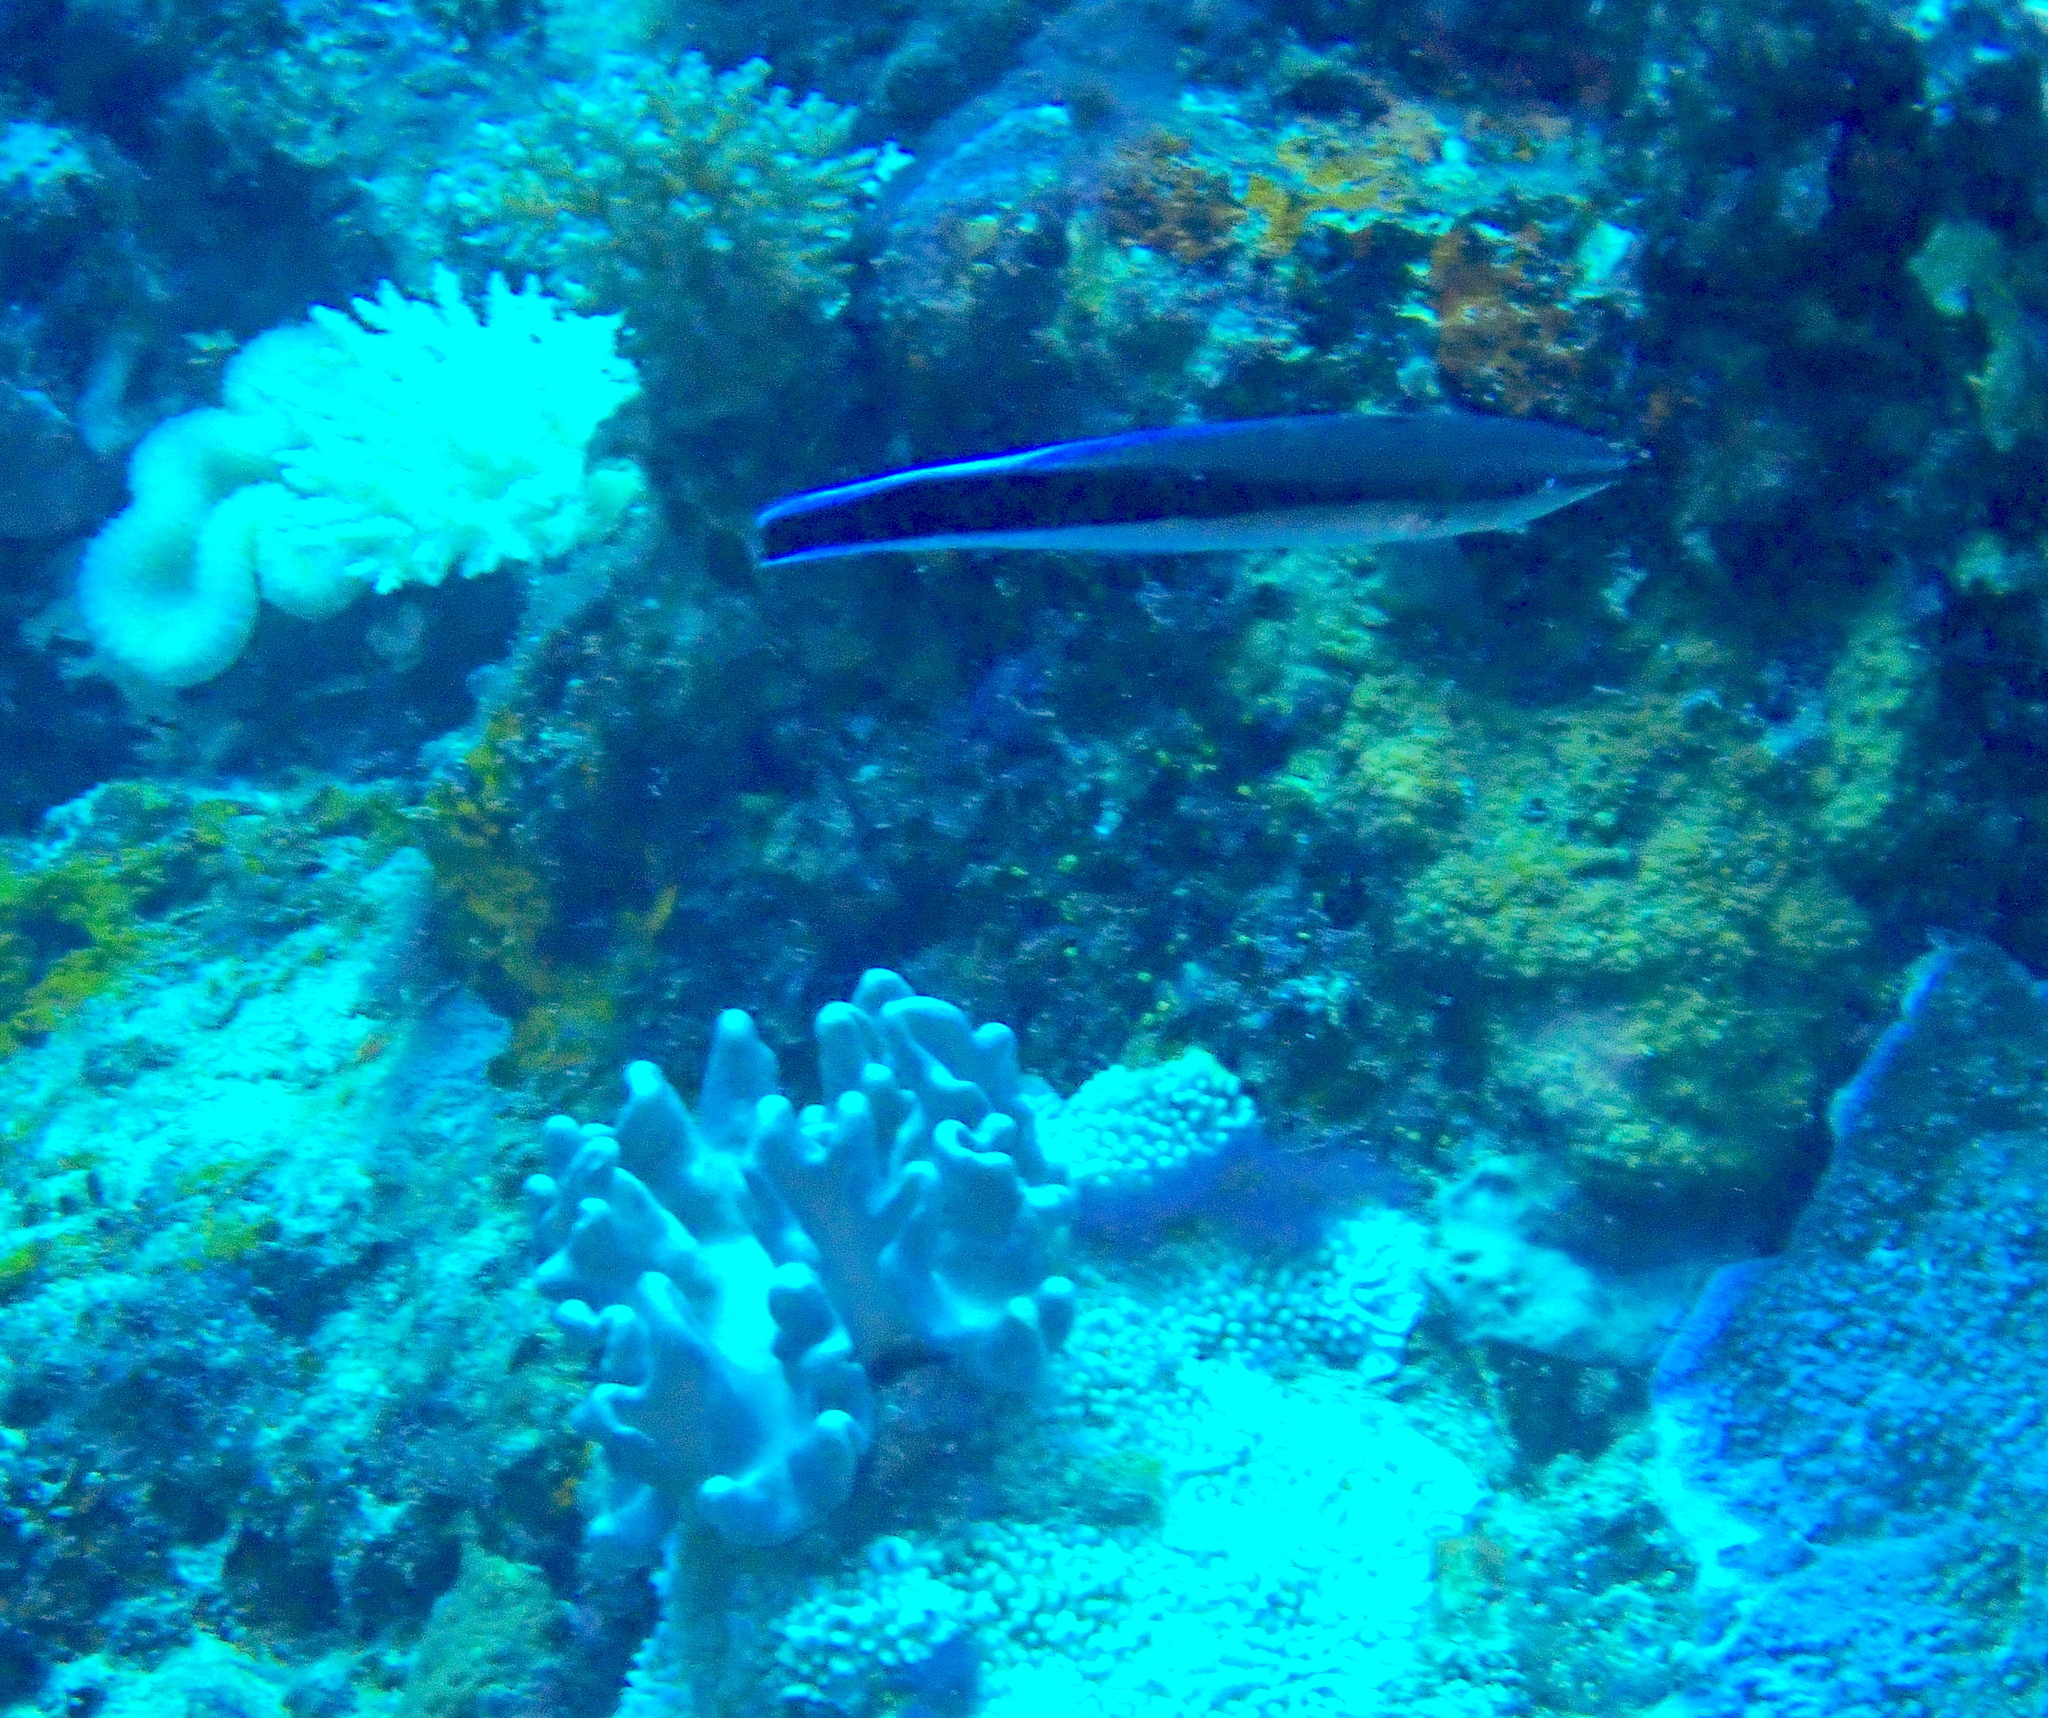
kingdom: Animalia
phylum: Chordata
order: Perciformes
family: Labridae
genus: Labroides
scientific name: Labroides dimidiatus
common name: Blue diesel wrasse
